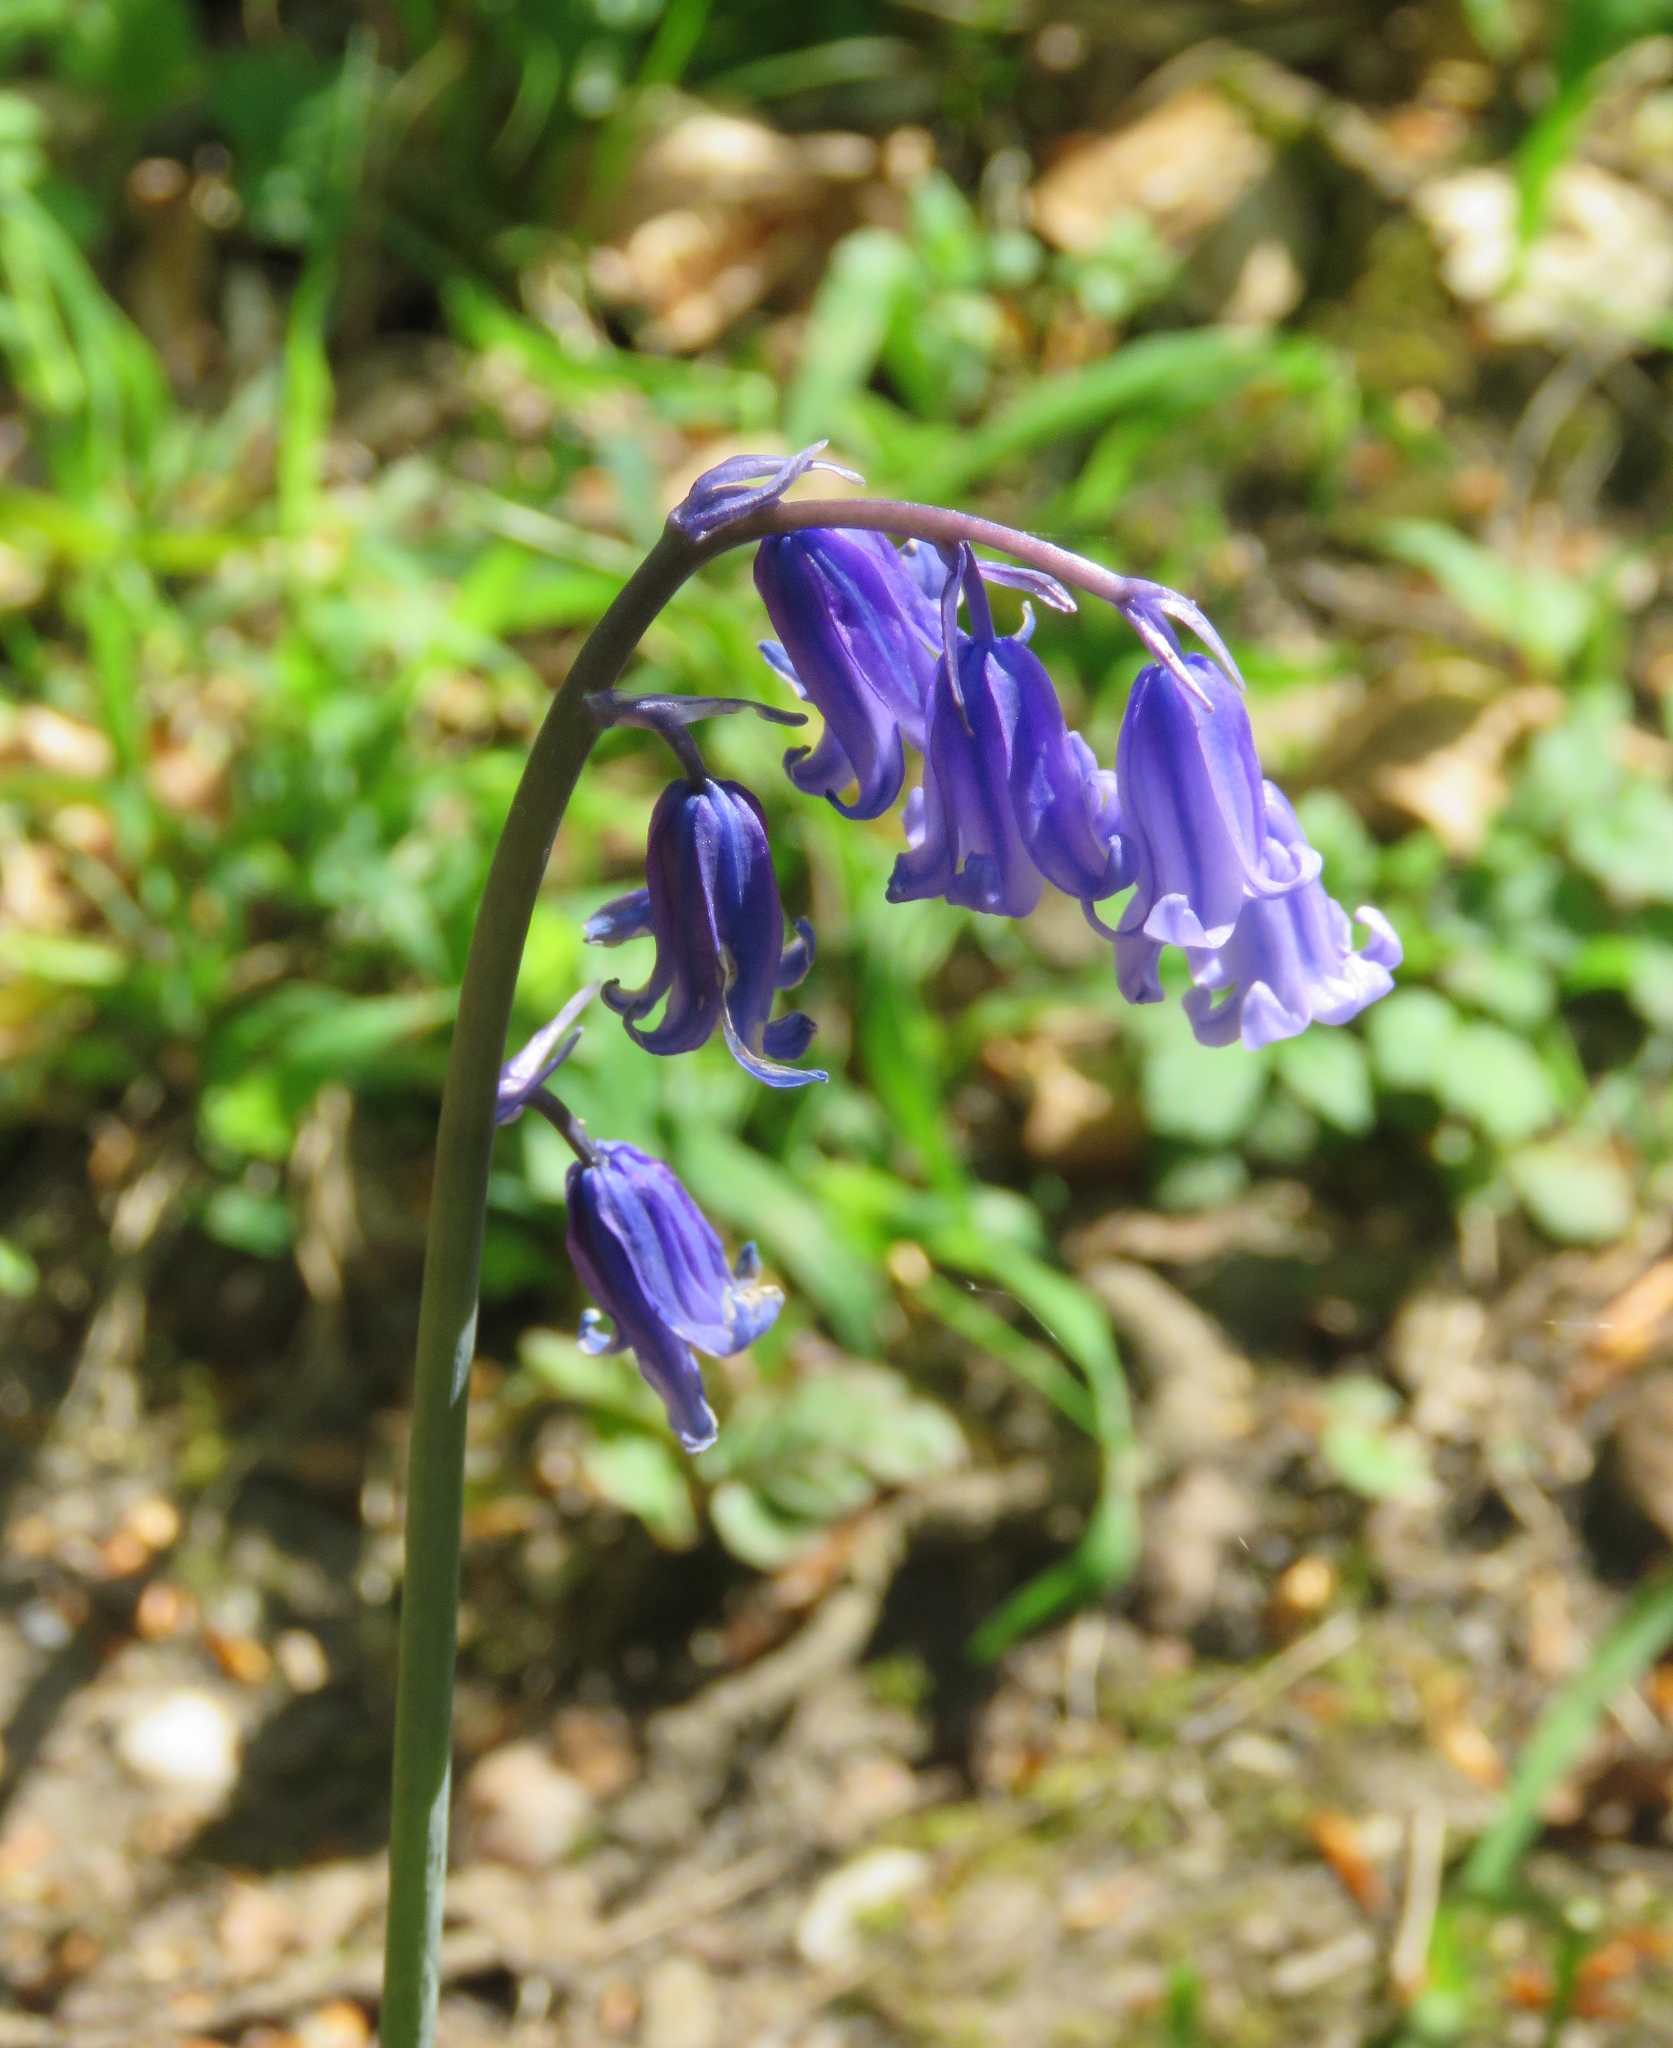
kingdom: Plantae
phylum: Tracheophyta
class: Liliopsida
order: Asparagales
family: Asparagaceae
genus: Hyacinthoides
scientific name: Hyacinthoides non-scripta
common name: Bluebell
